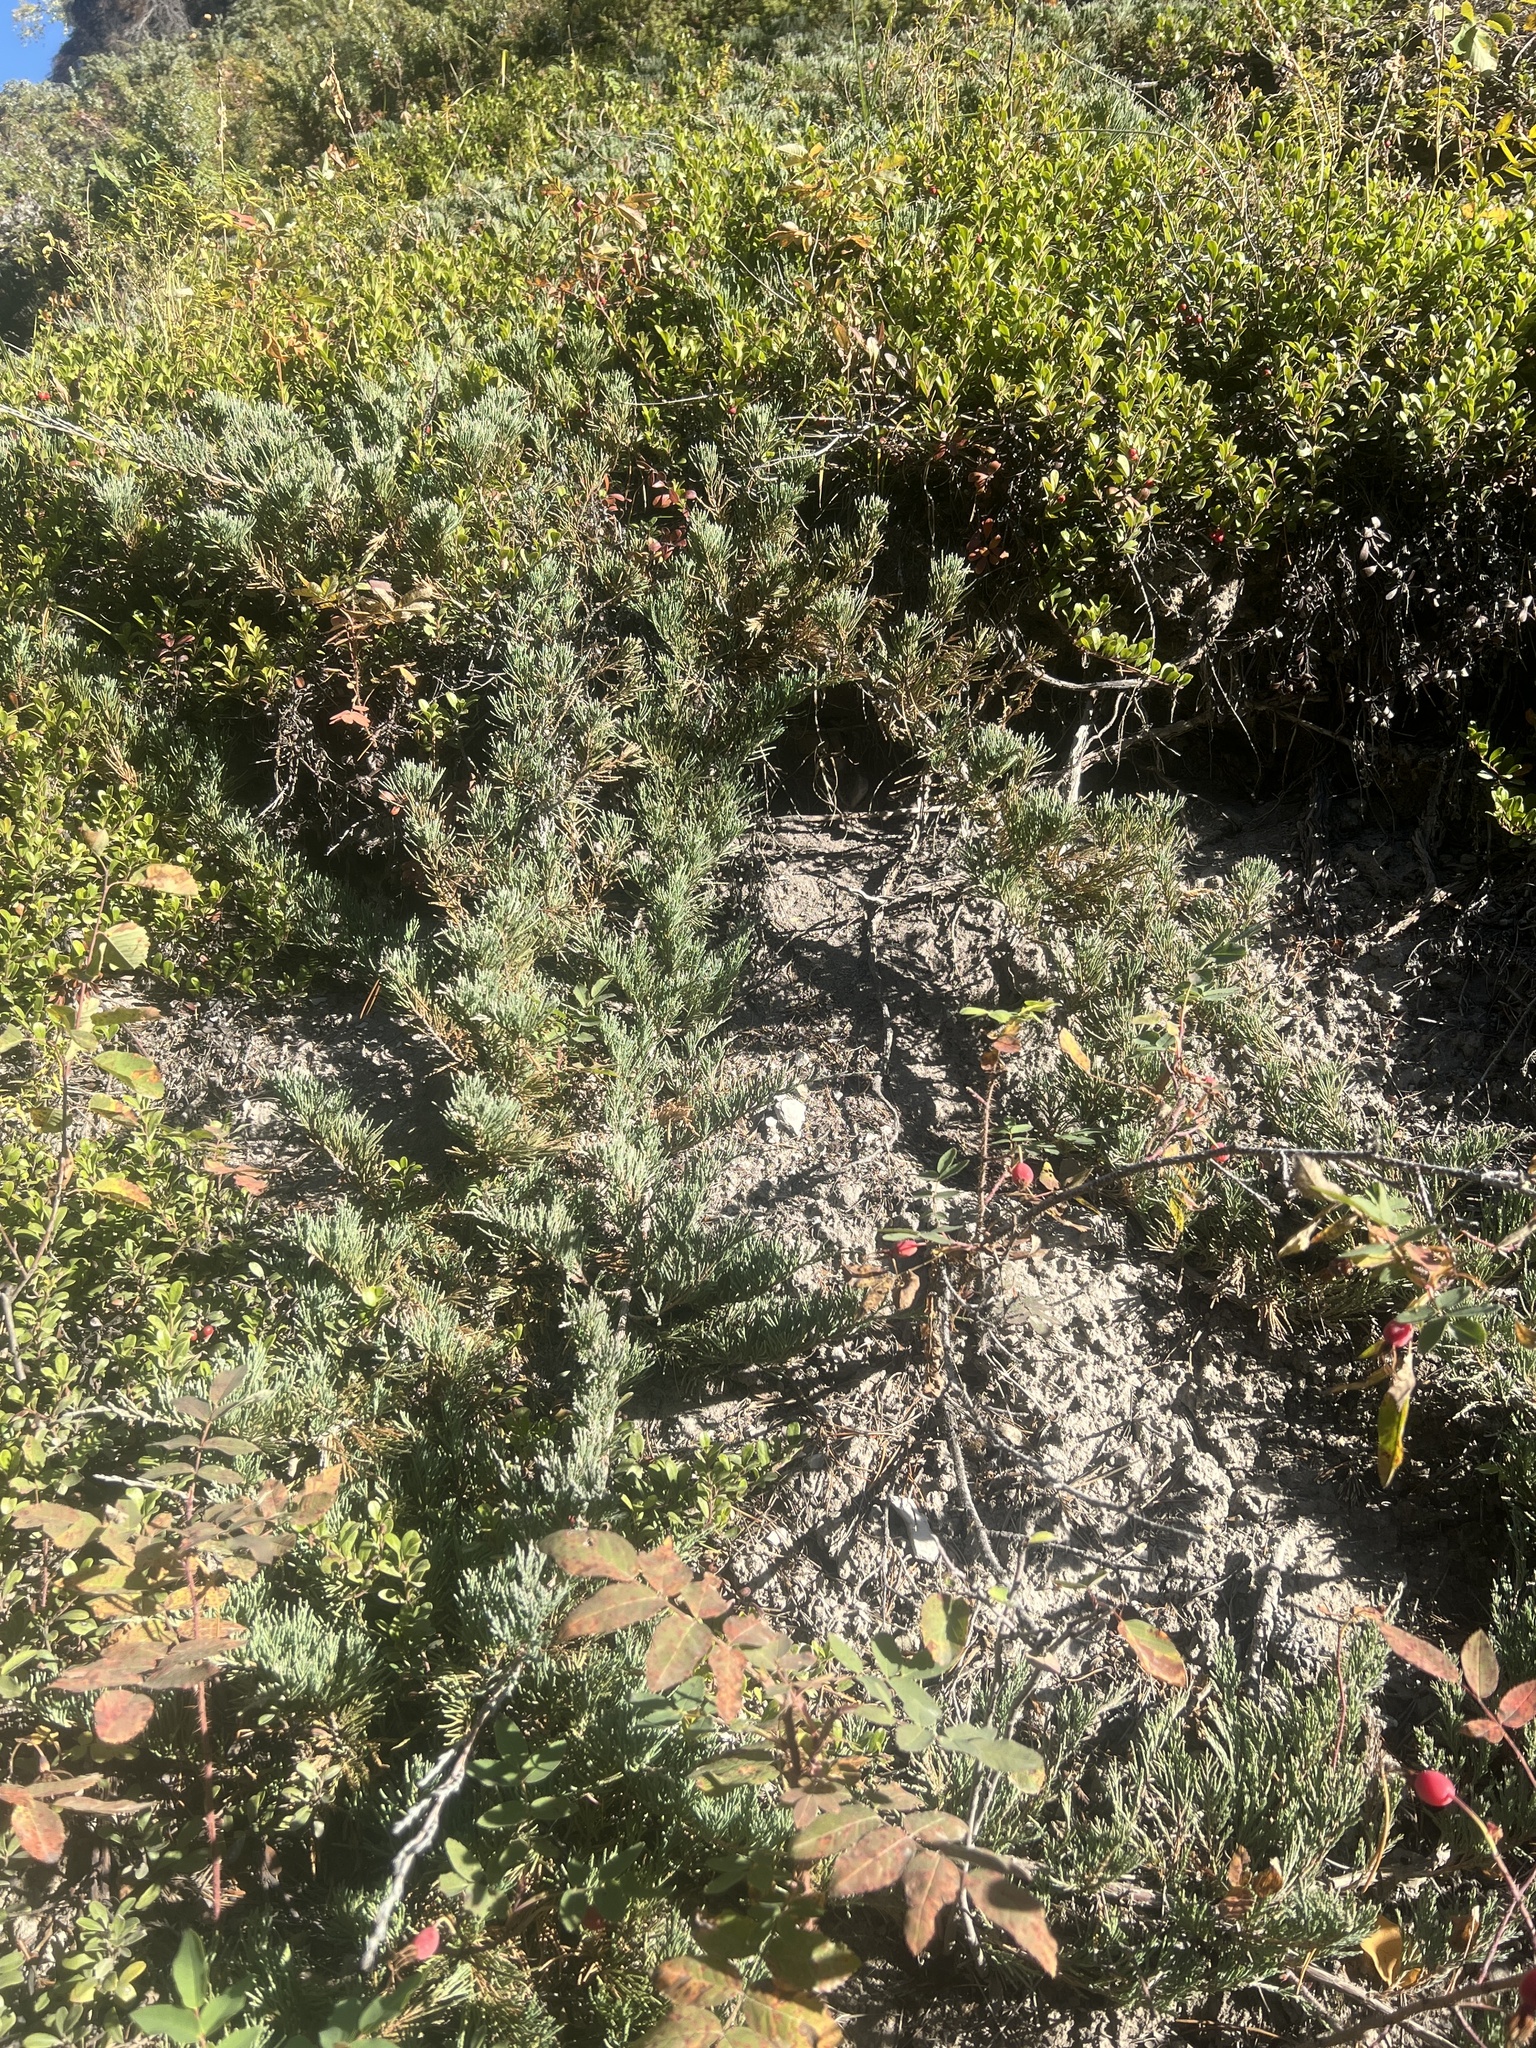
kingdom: Plantae
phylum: Tracheophyta
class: Pinopsida
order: Pinales
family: Cupressaceae
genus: Juniperus
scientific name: Juniperus horizontalis
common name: Creeping juniper
